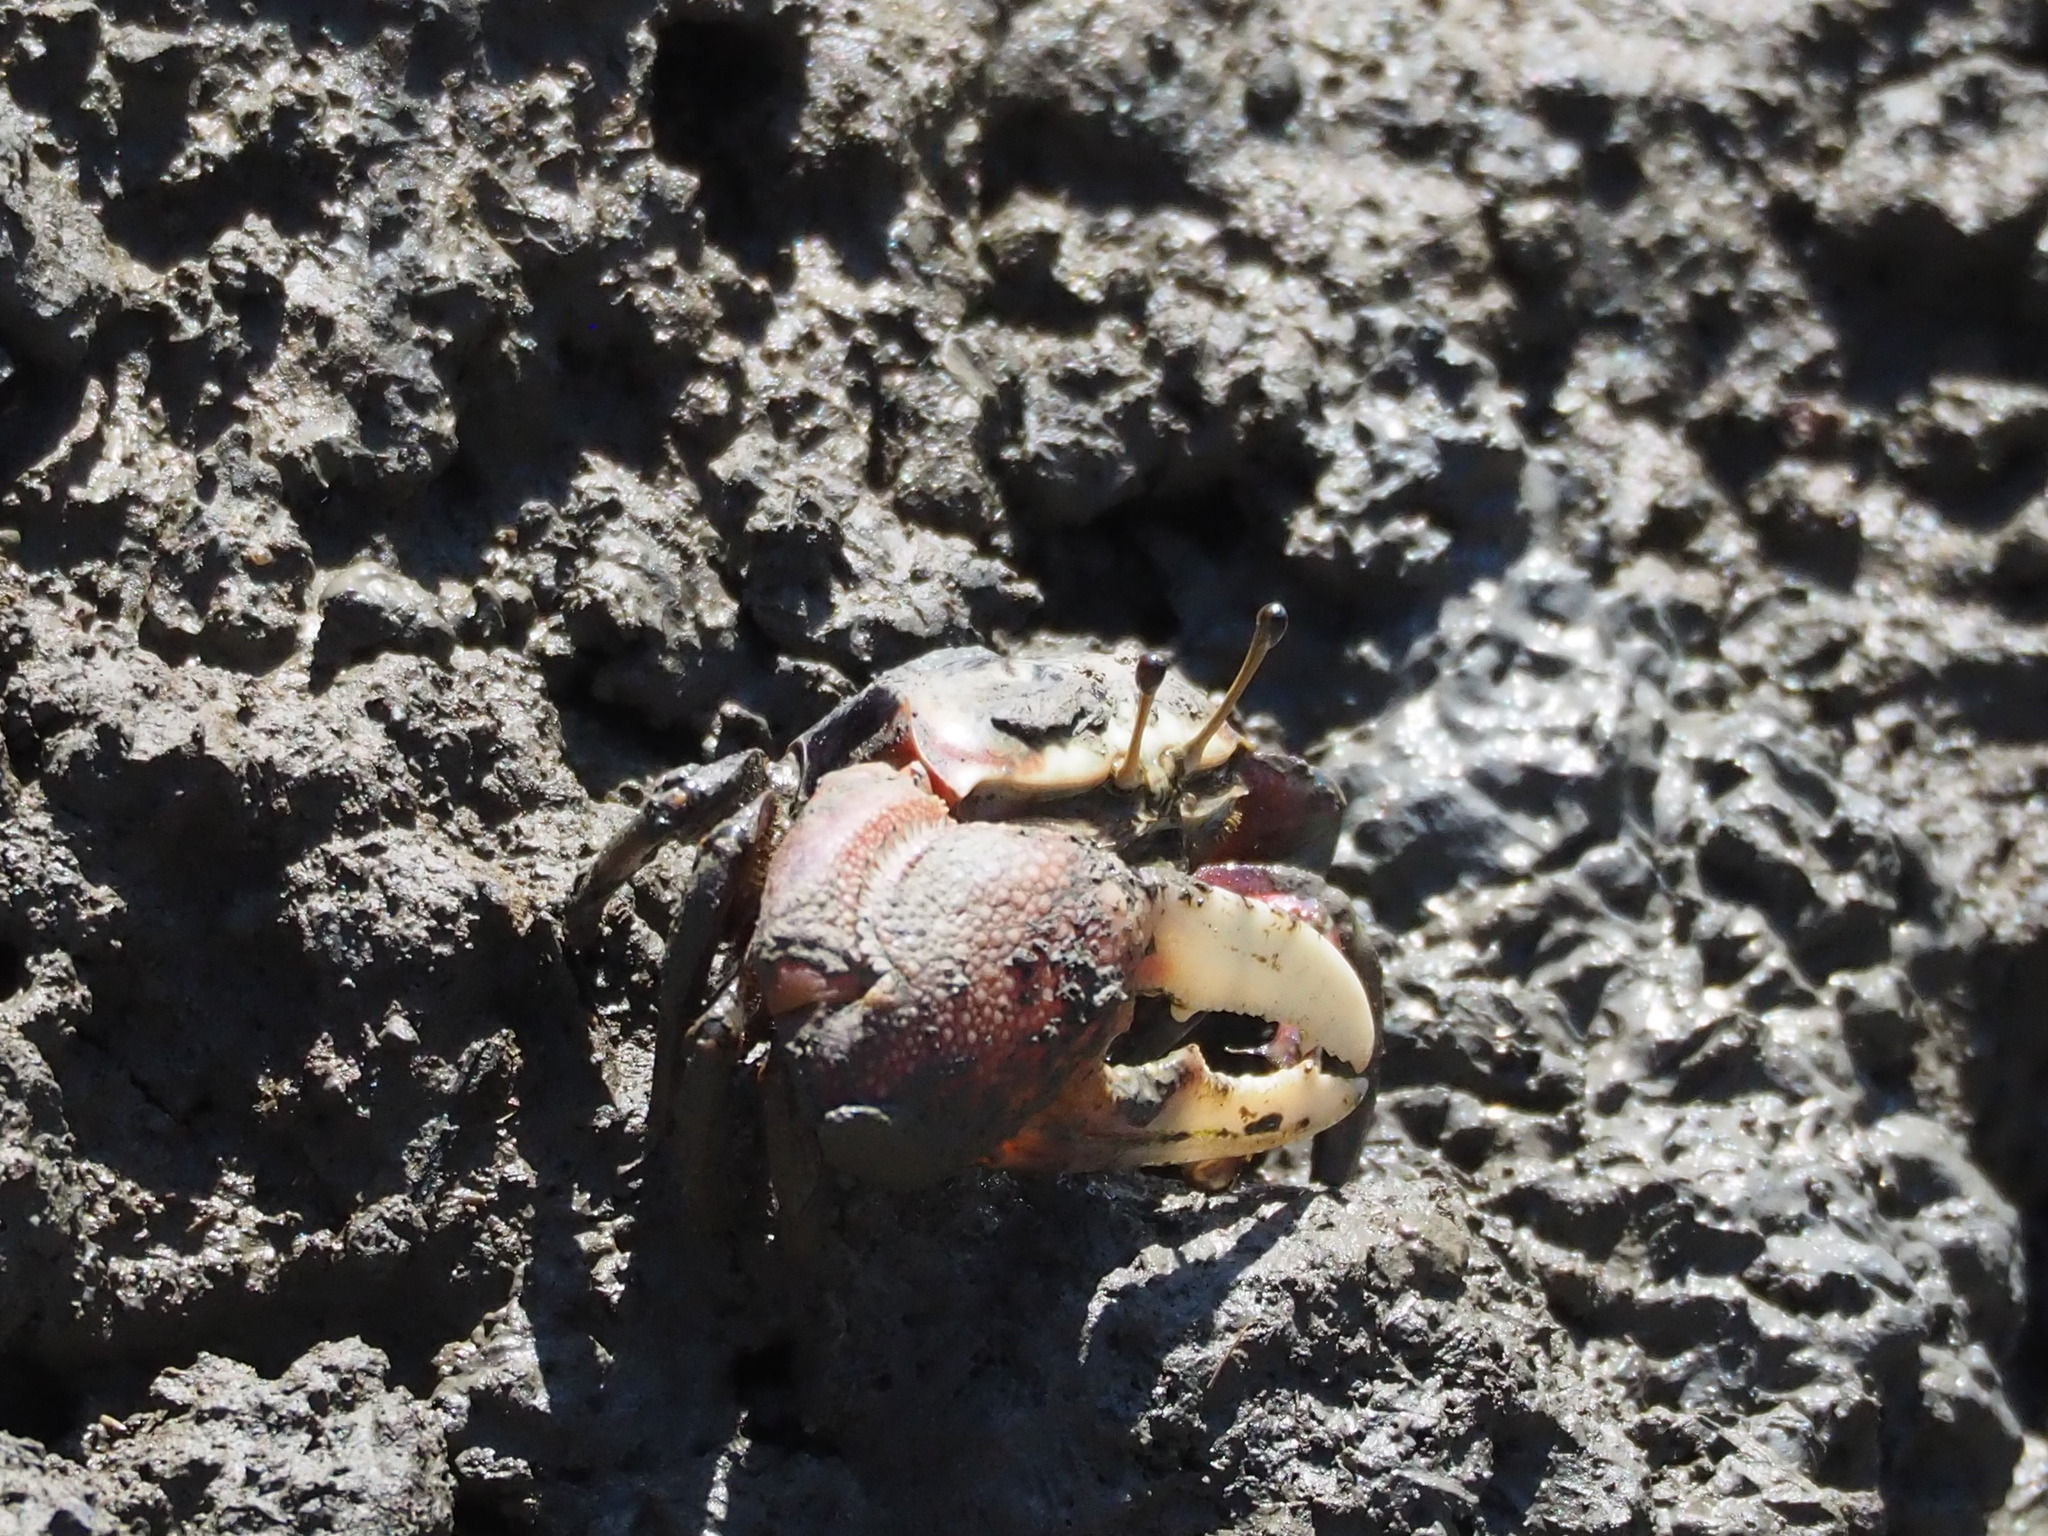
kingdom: Animalia
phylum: Arthropoda
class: Malacostraca
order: Decapoda
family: Ocypodidae
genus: Tubuca
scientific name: Tubuca arcuata
